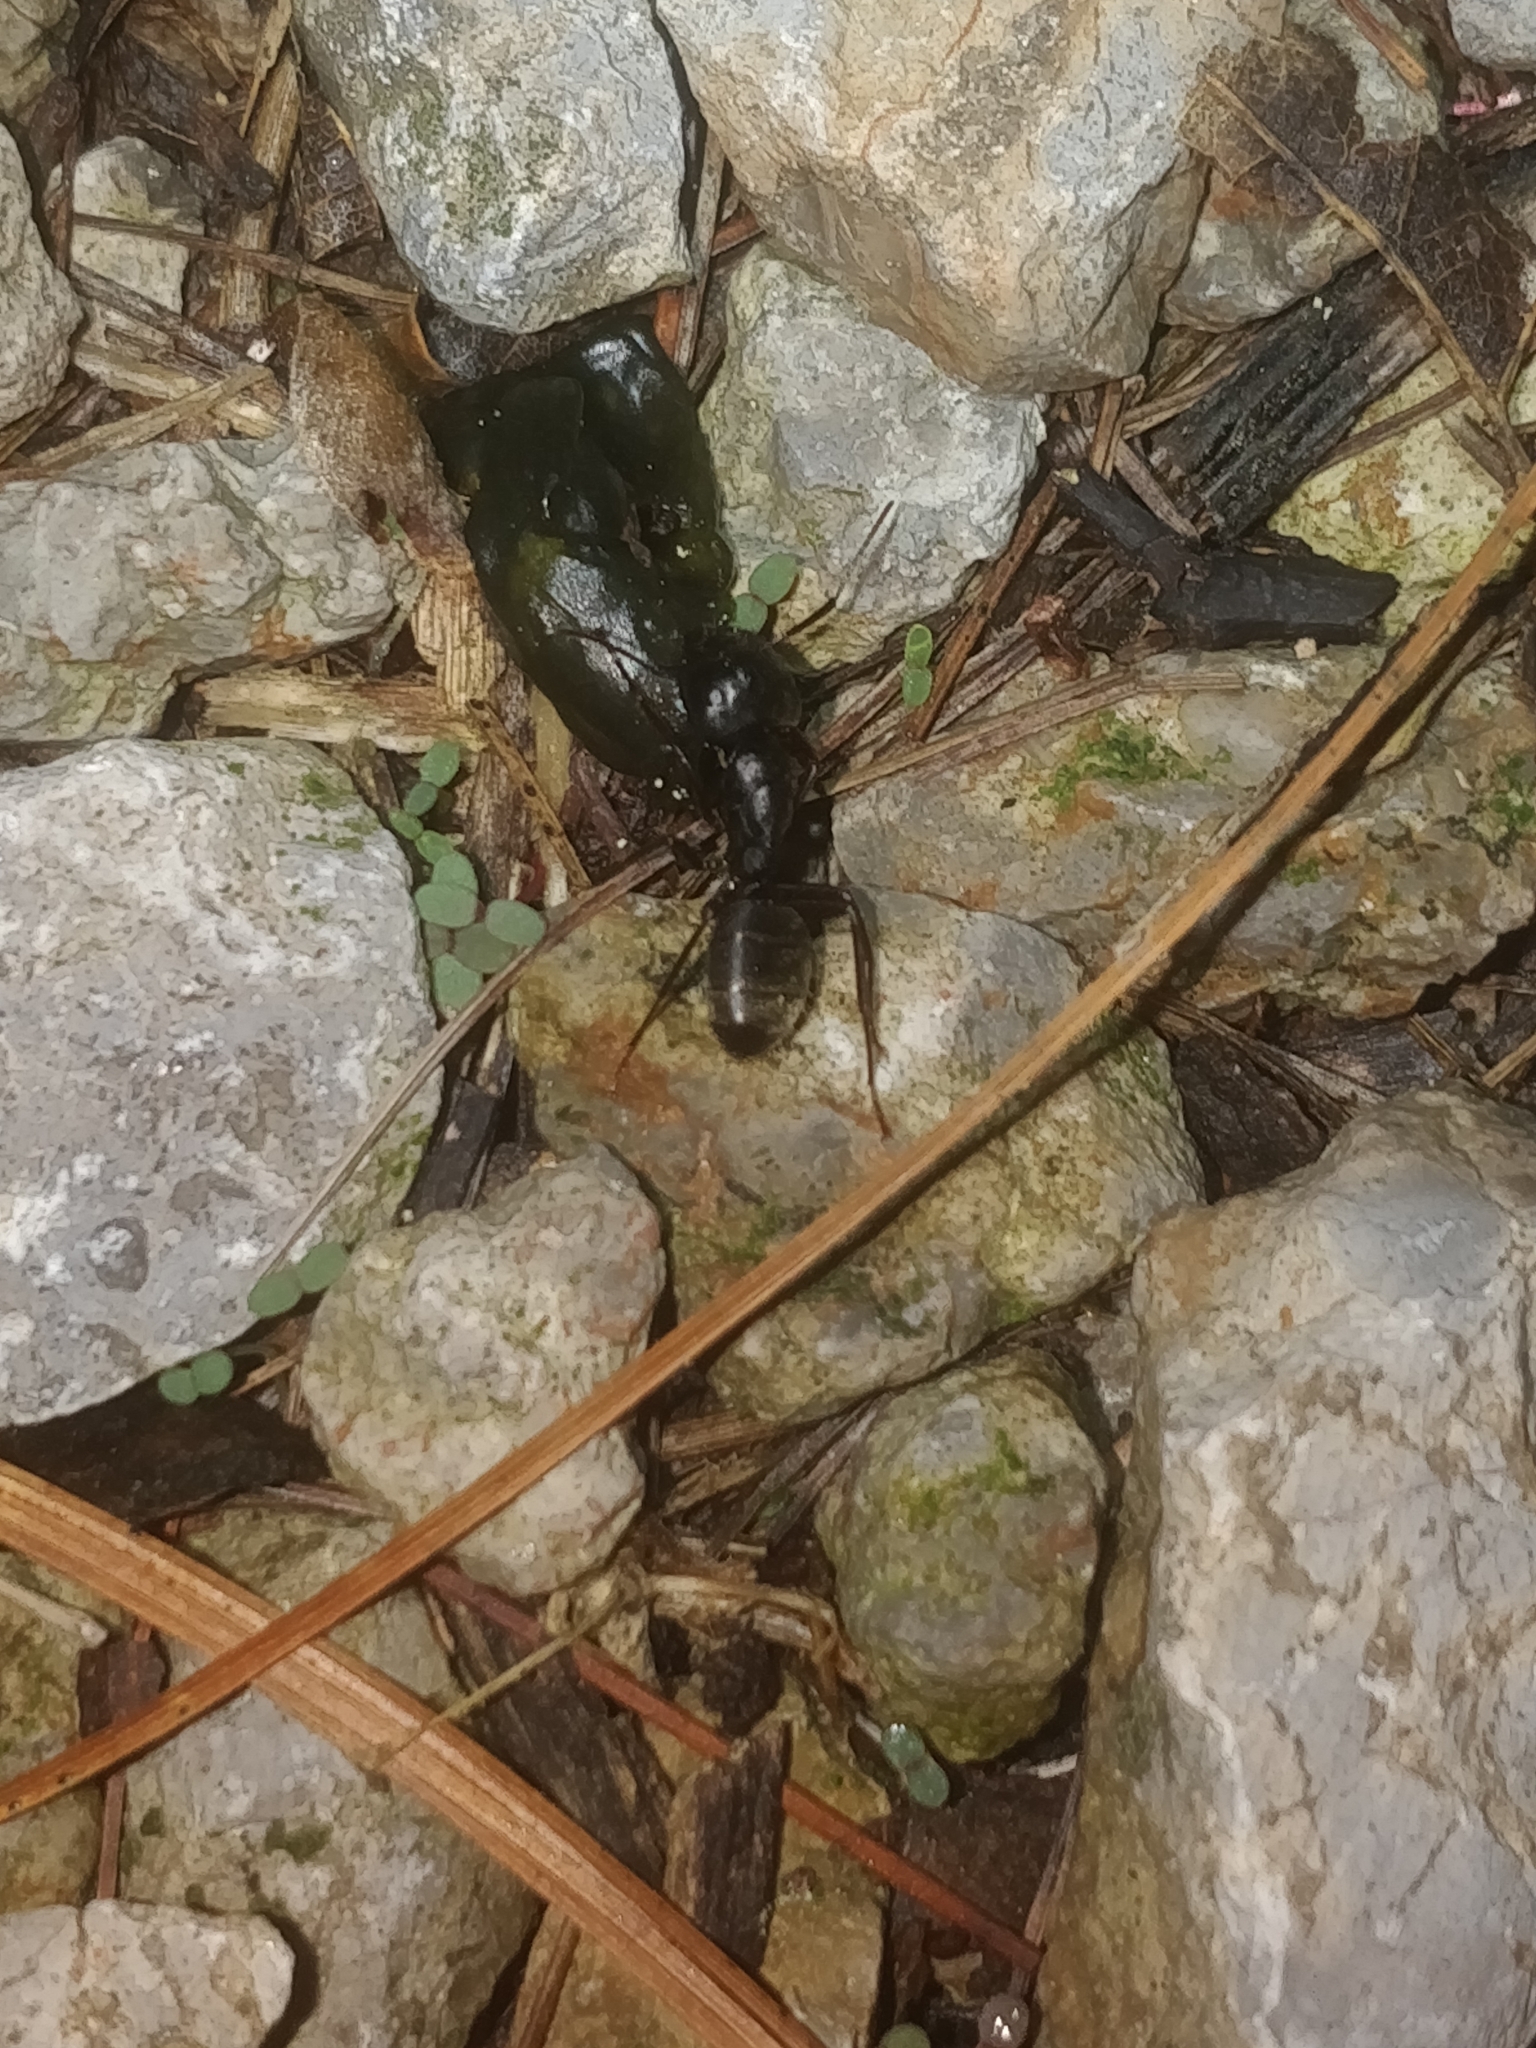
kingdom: Animalia
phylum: Arthropoda
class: Insecta
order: Hymenoptera
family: Formicidae
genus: Camponotus
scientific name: Camponotus pennsylvanicus
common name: Black carpenter ant
